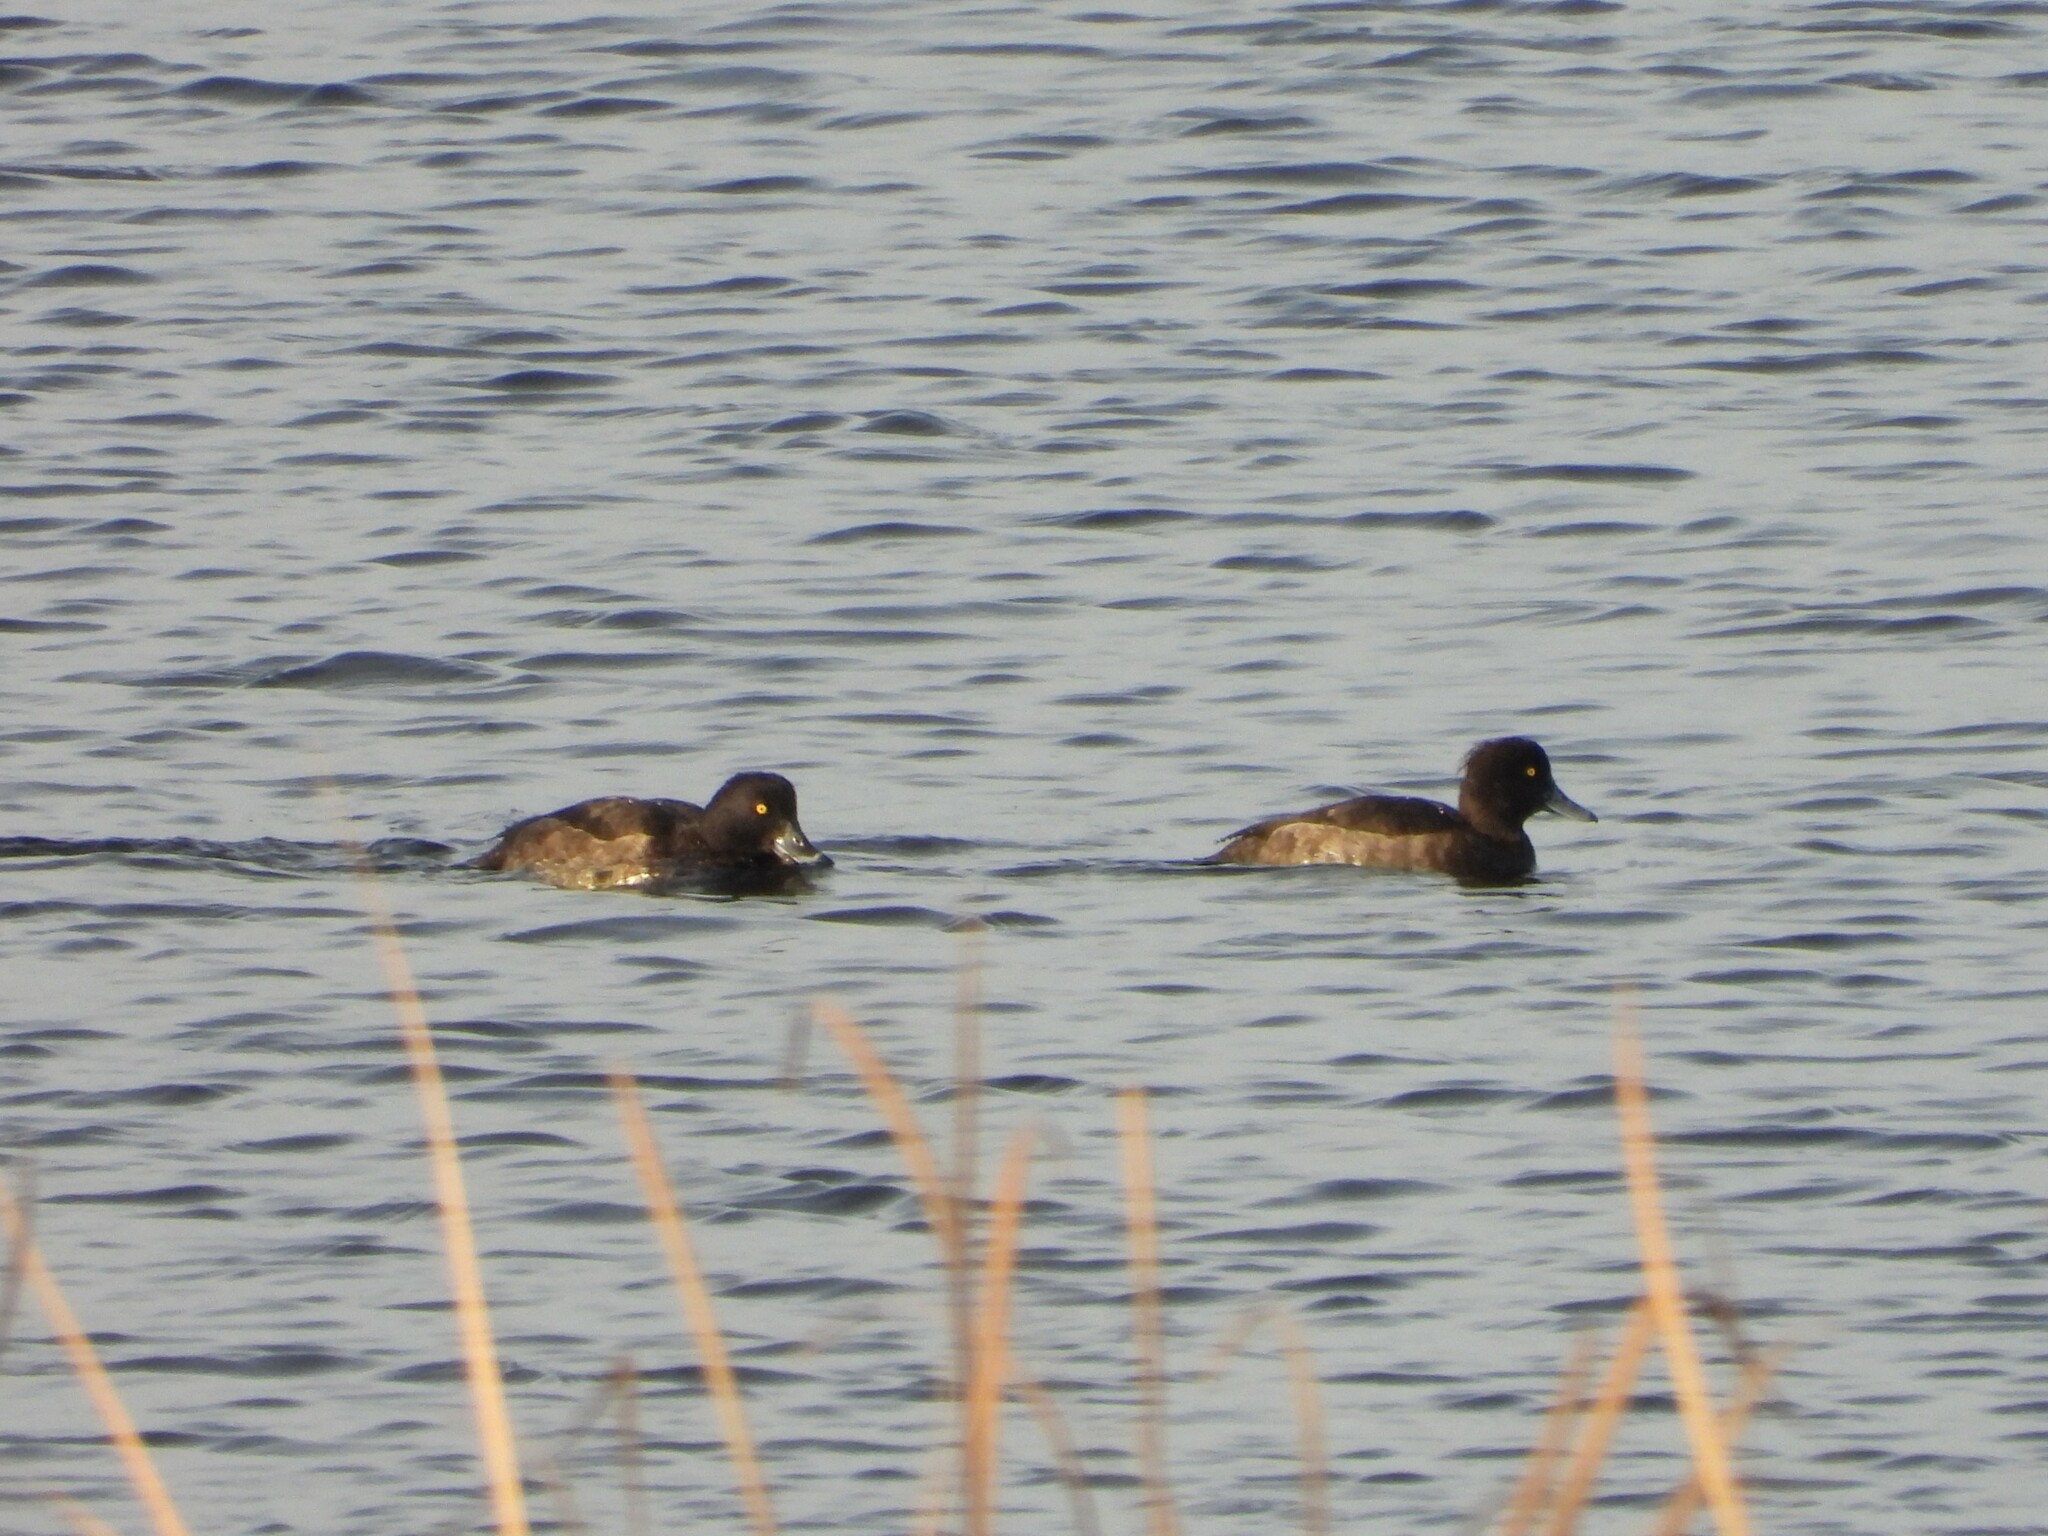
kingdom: Animalia
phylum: Chordata
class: Aves
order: Anseriformes
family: Anatidae
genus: Aythya
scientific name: Aythya fuligula
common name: Tufted duck
